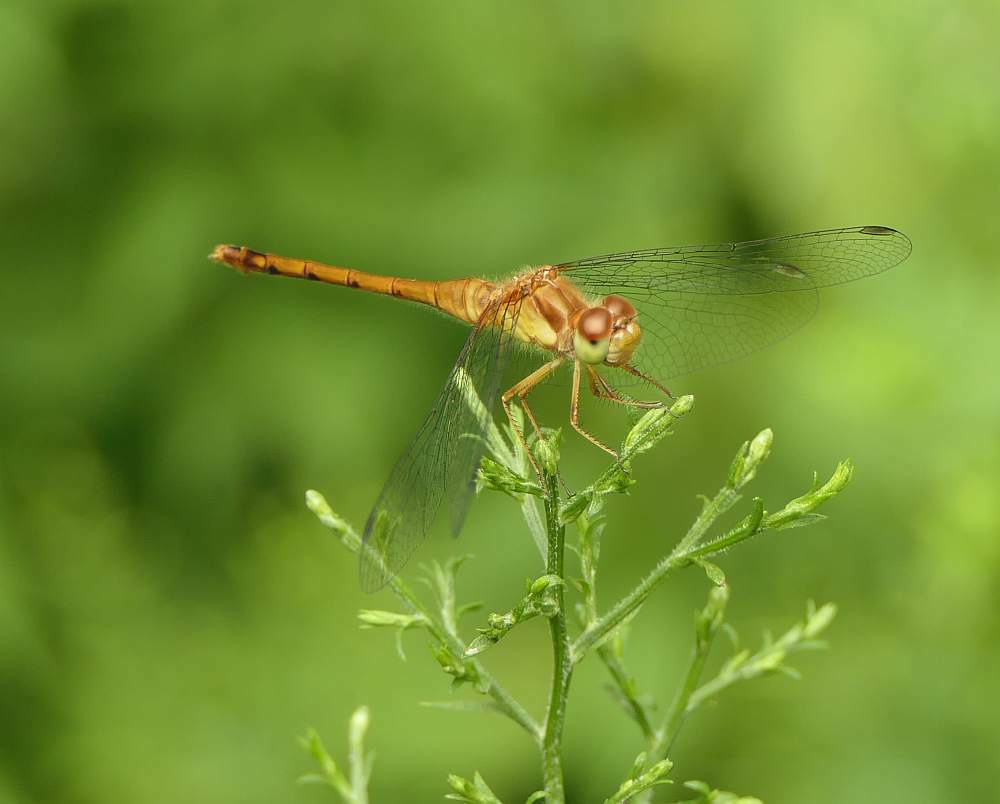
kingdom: Animalia
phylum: Arthropoda
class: Insecta
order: Odonata
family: Libellulidae
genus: Sympetrum
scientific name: Sympetrum vicinum
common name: Autumn meadowhawk
